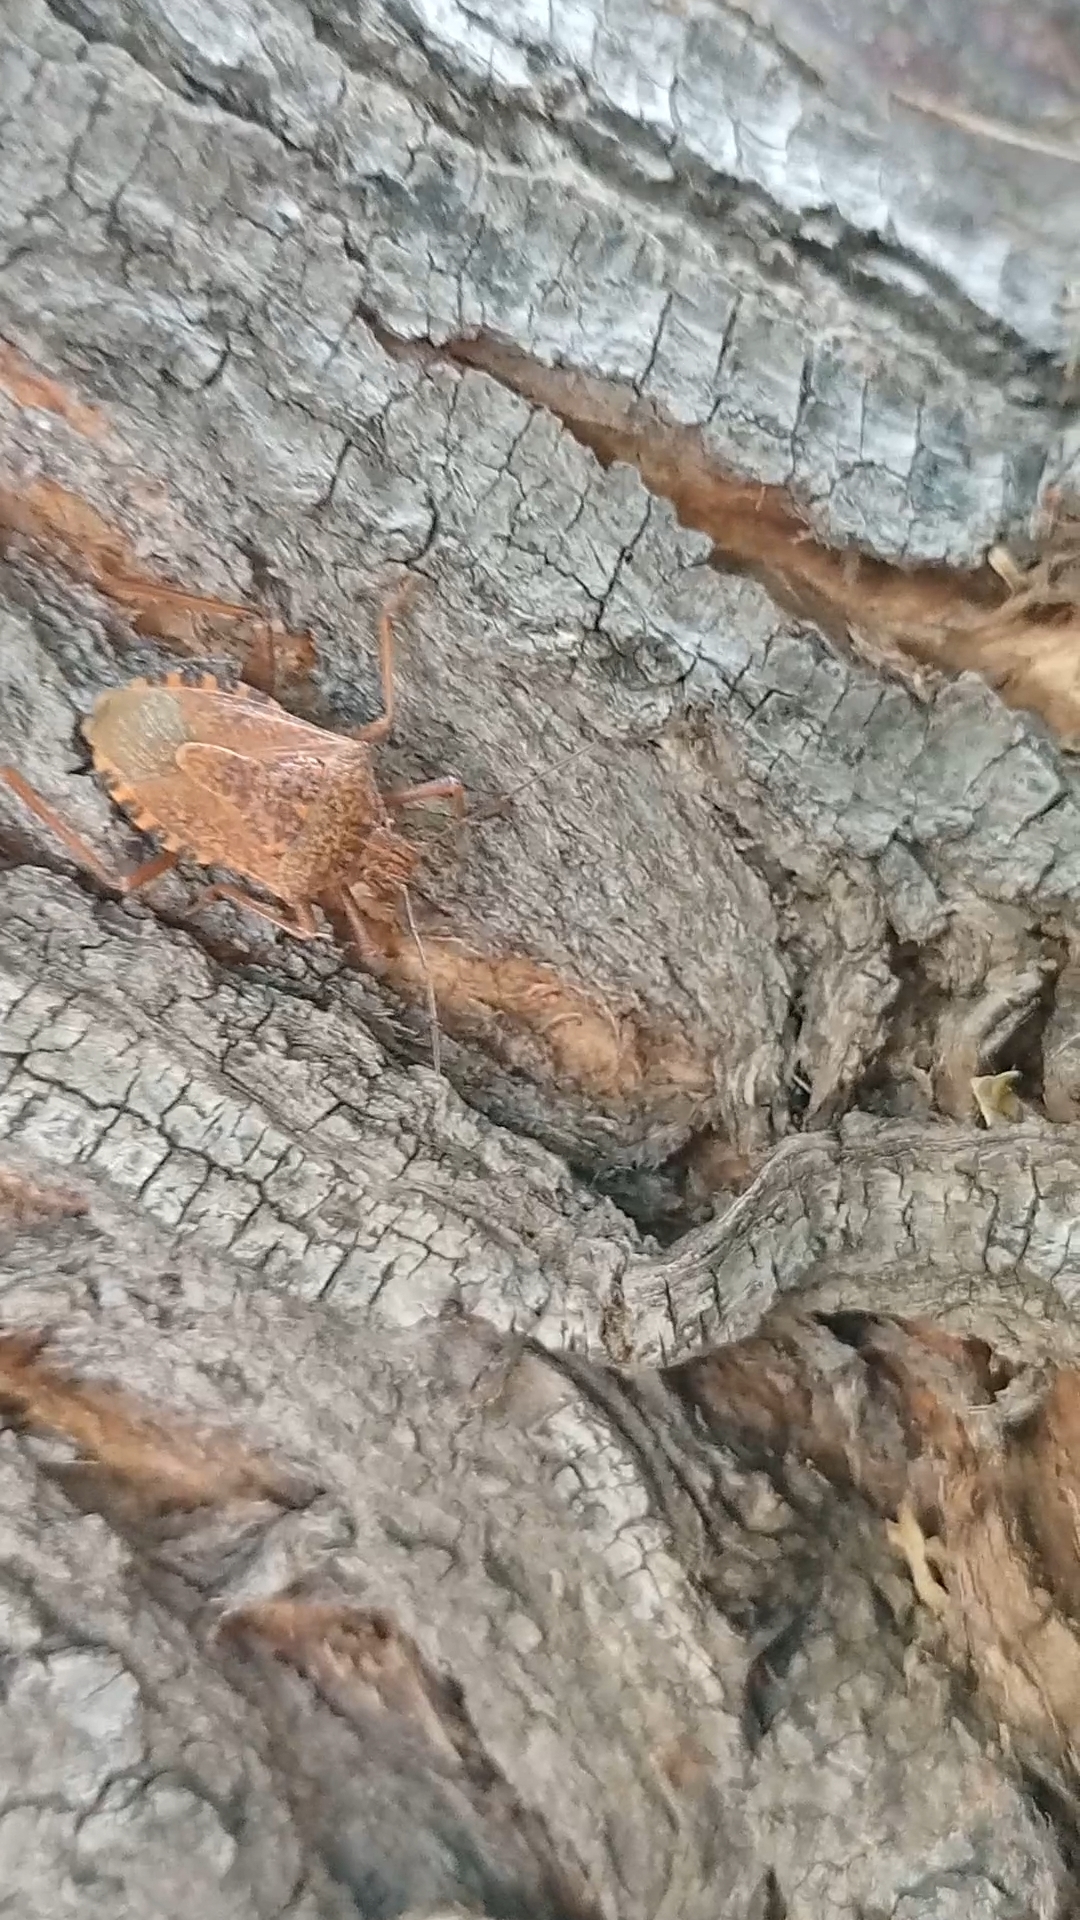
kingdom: Animalia
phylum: Arthropoda
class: Insecta
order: Hemiptera
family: Pentatomidae
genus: Apodiphus
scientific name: Apodiphus
